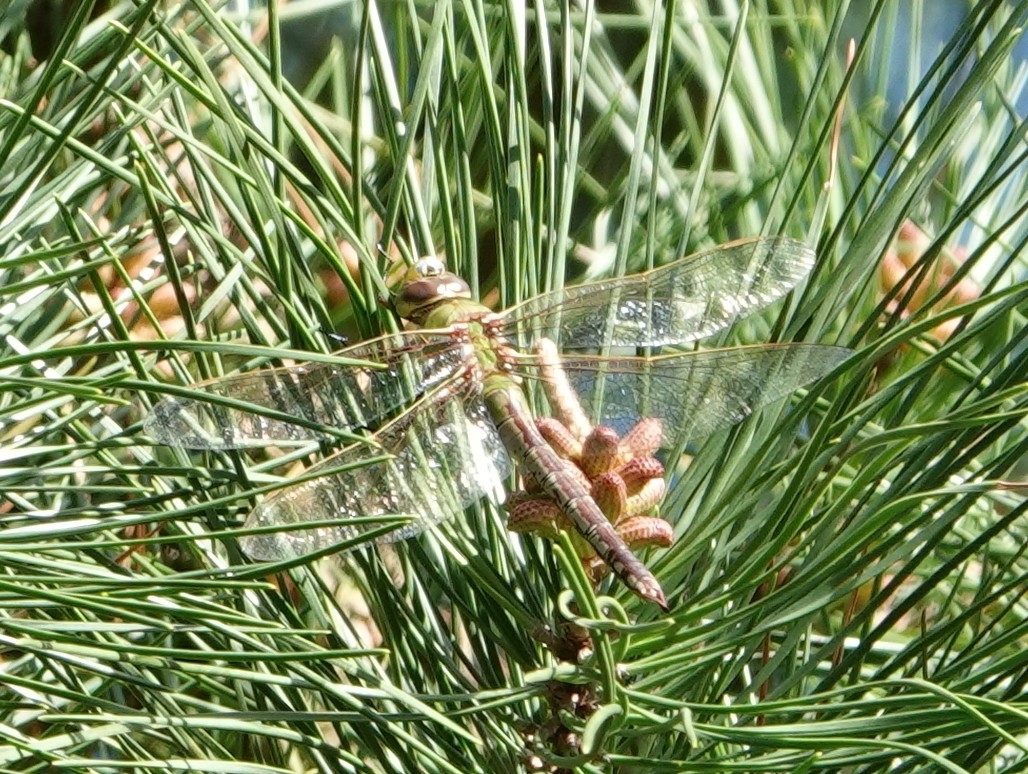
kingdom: Animalia
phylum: Arthropoda
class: Insecta
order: Odonata
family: Aeshnidae
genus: Anax
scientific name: Anax junius
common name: Common green darner
